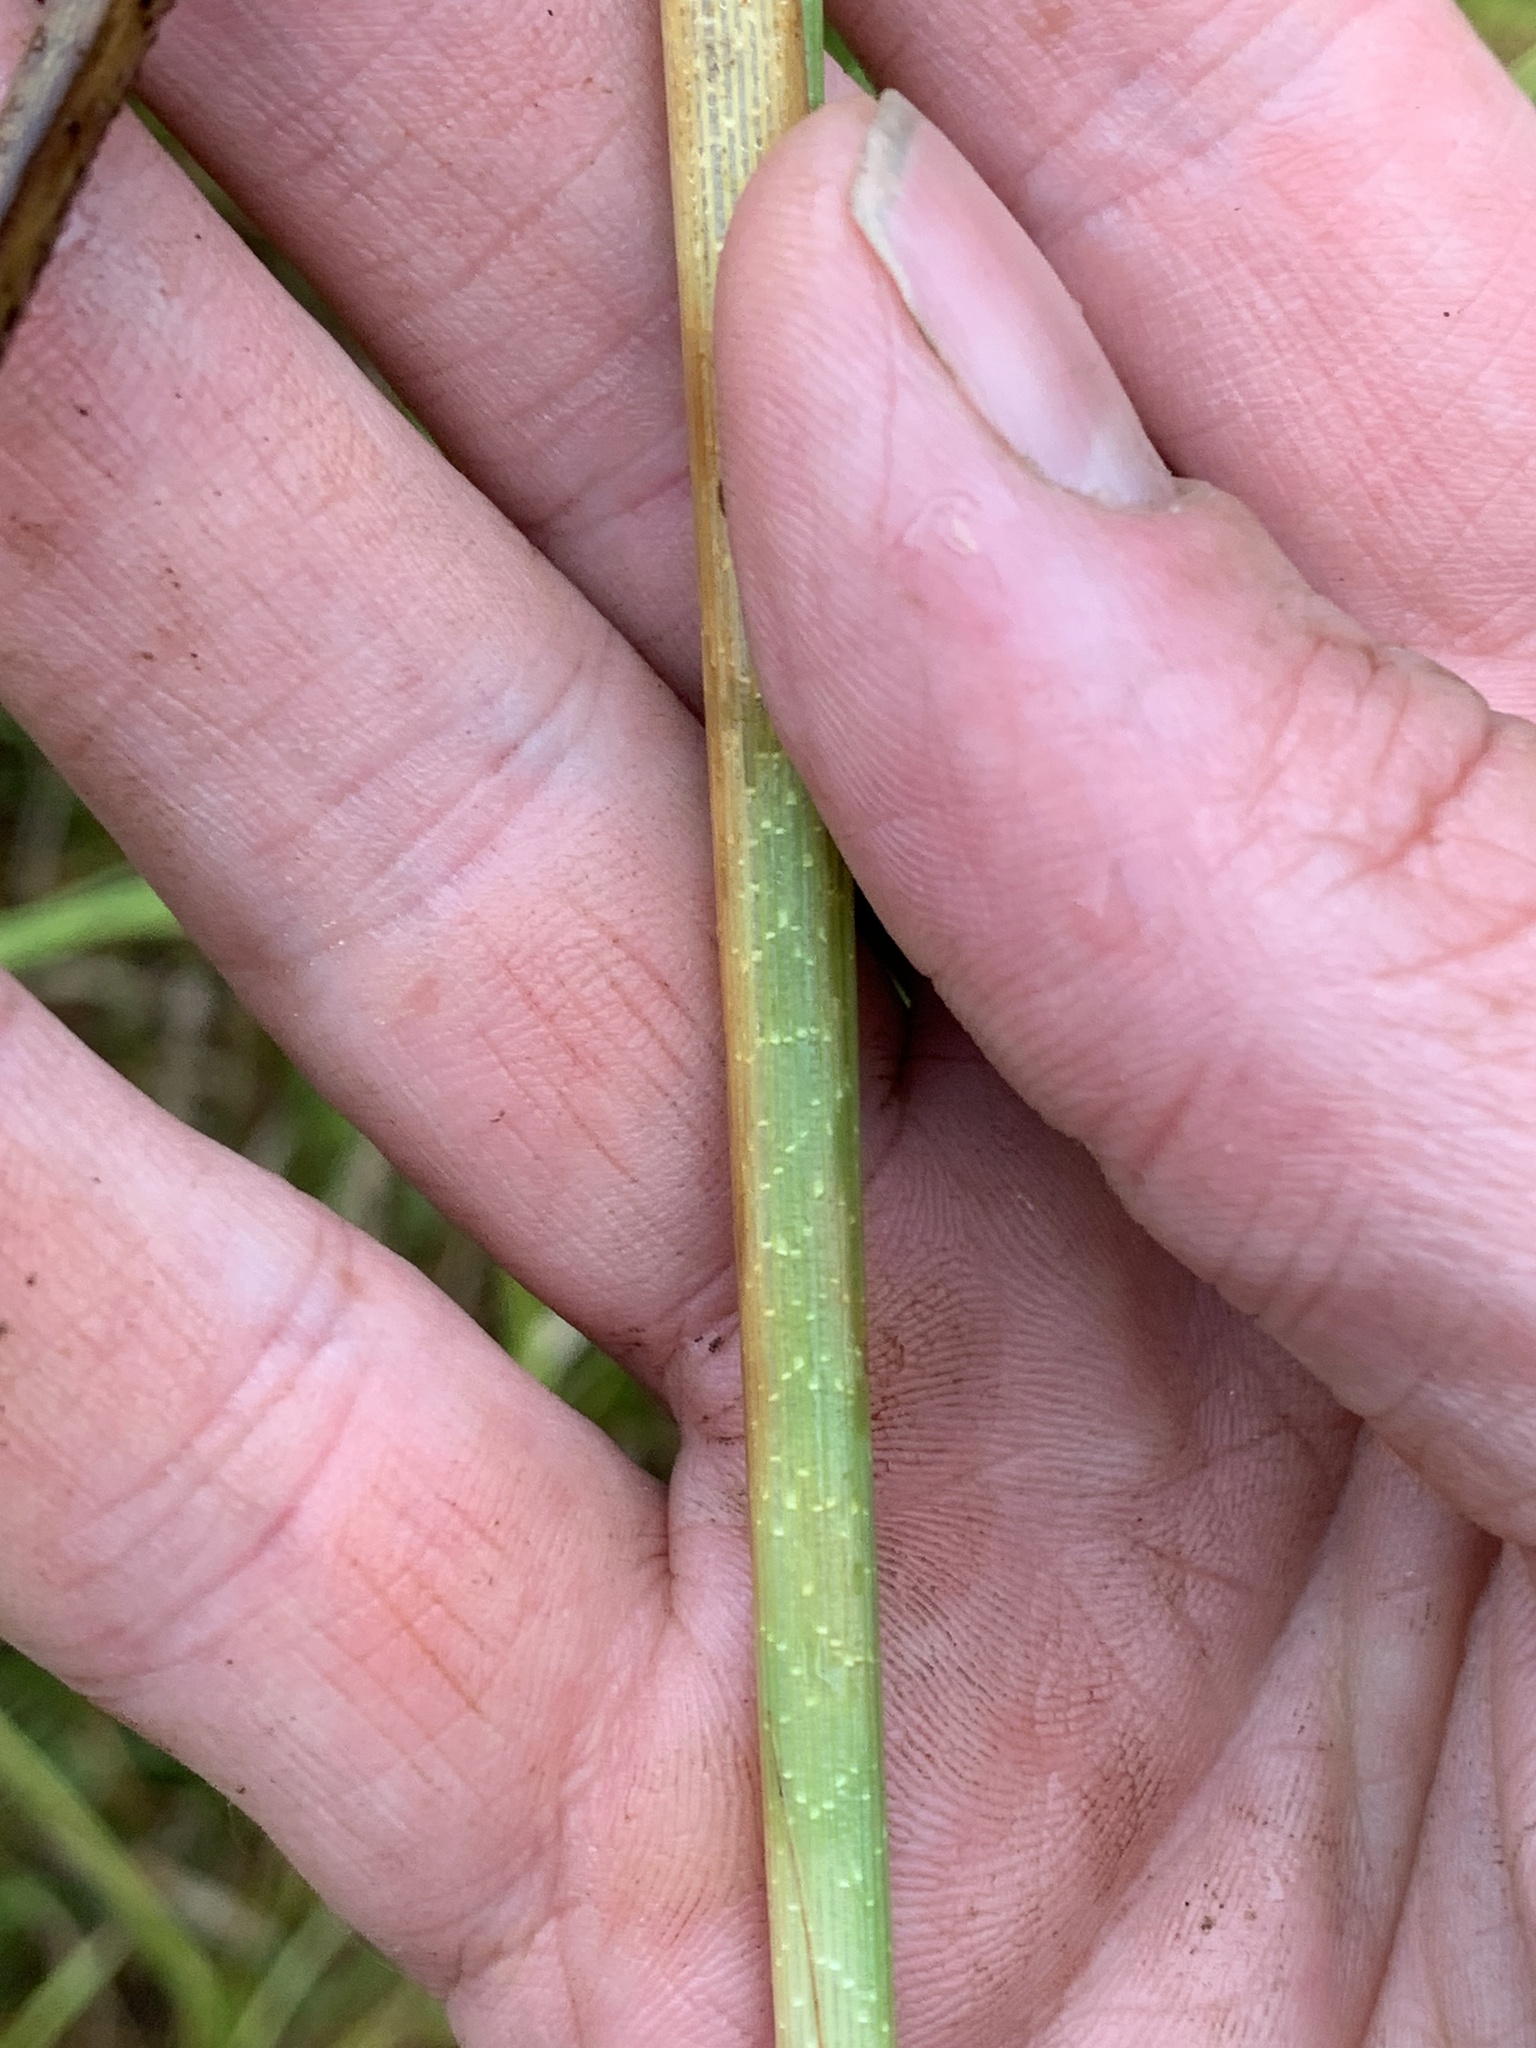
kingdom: Plantae
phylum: Tracheophyta
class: Liliopsida
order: Poales
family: Cyperaceae
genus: Carex
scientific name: Carex utriculata
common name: Beaked sedge
